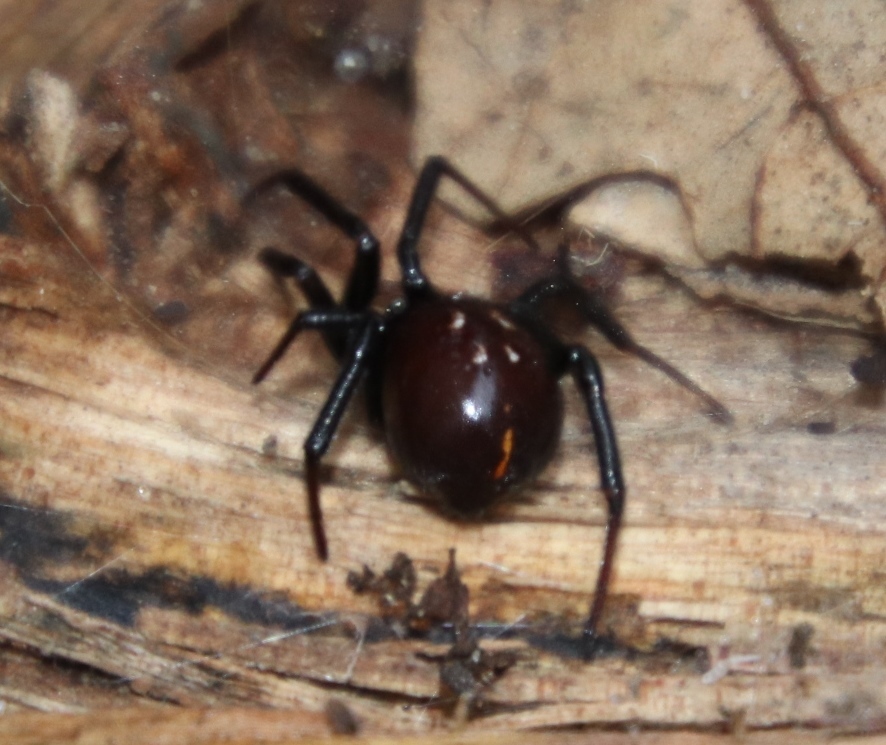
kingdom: Animalia
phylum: Arthropoda
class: Arachnida
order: Araneae
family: Theridiidae
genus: Steatoda
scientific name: Steatoda capensis
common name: Cobweb weaver
